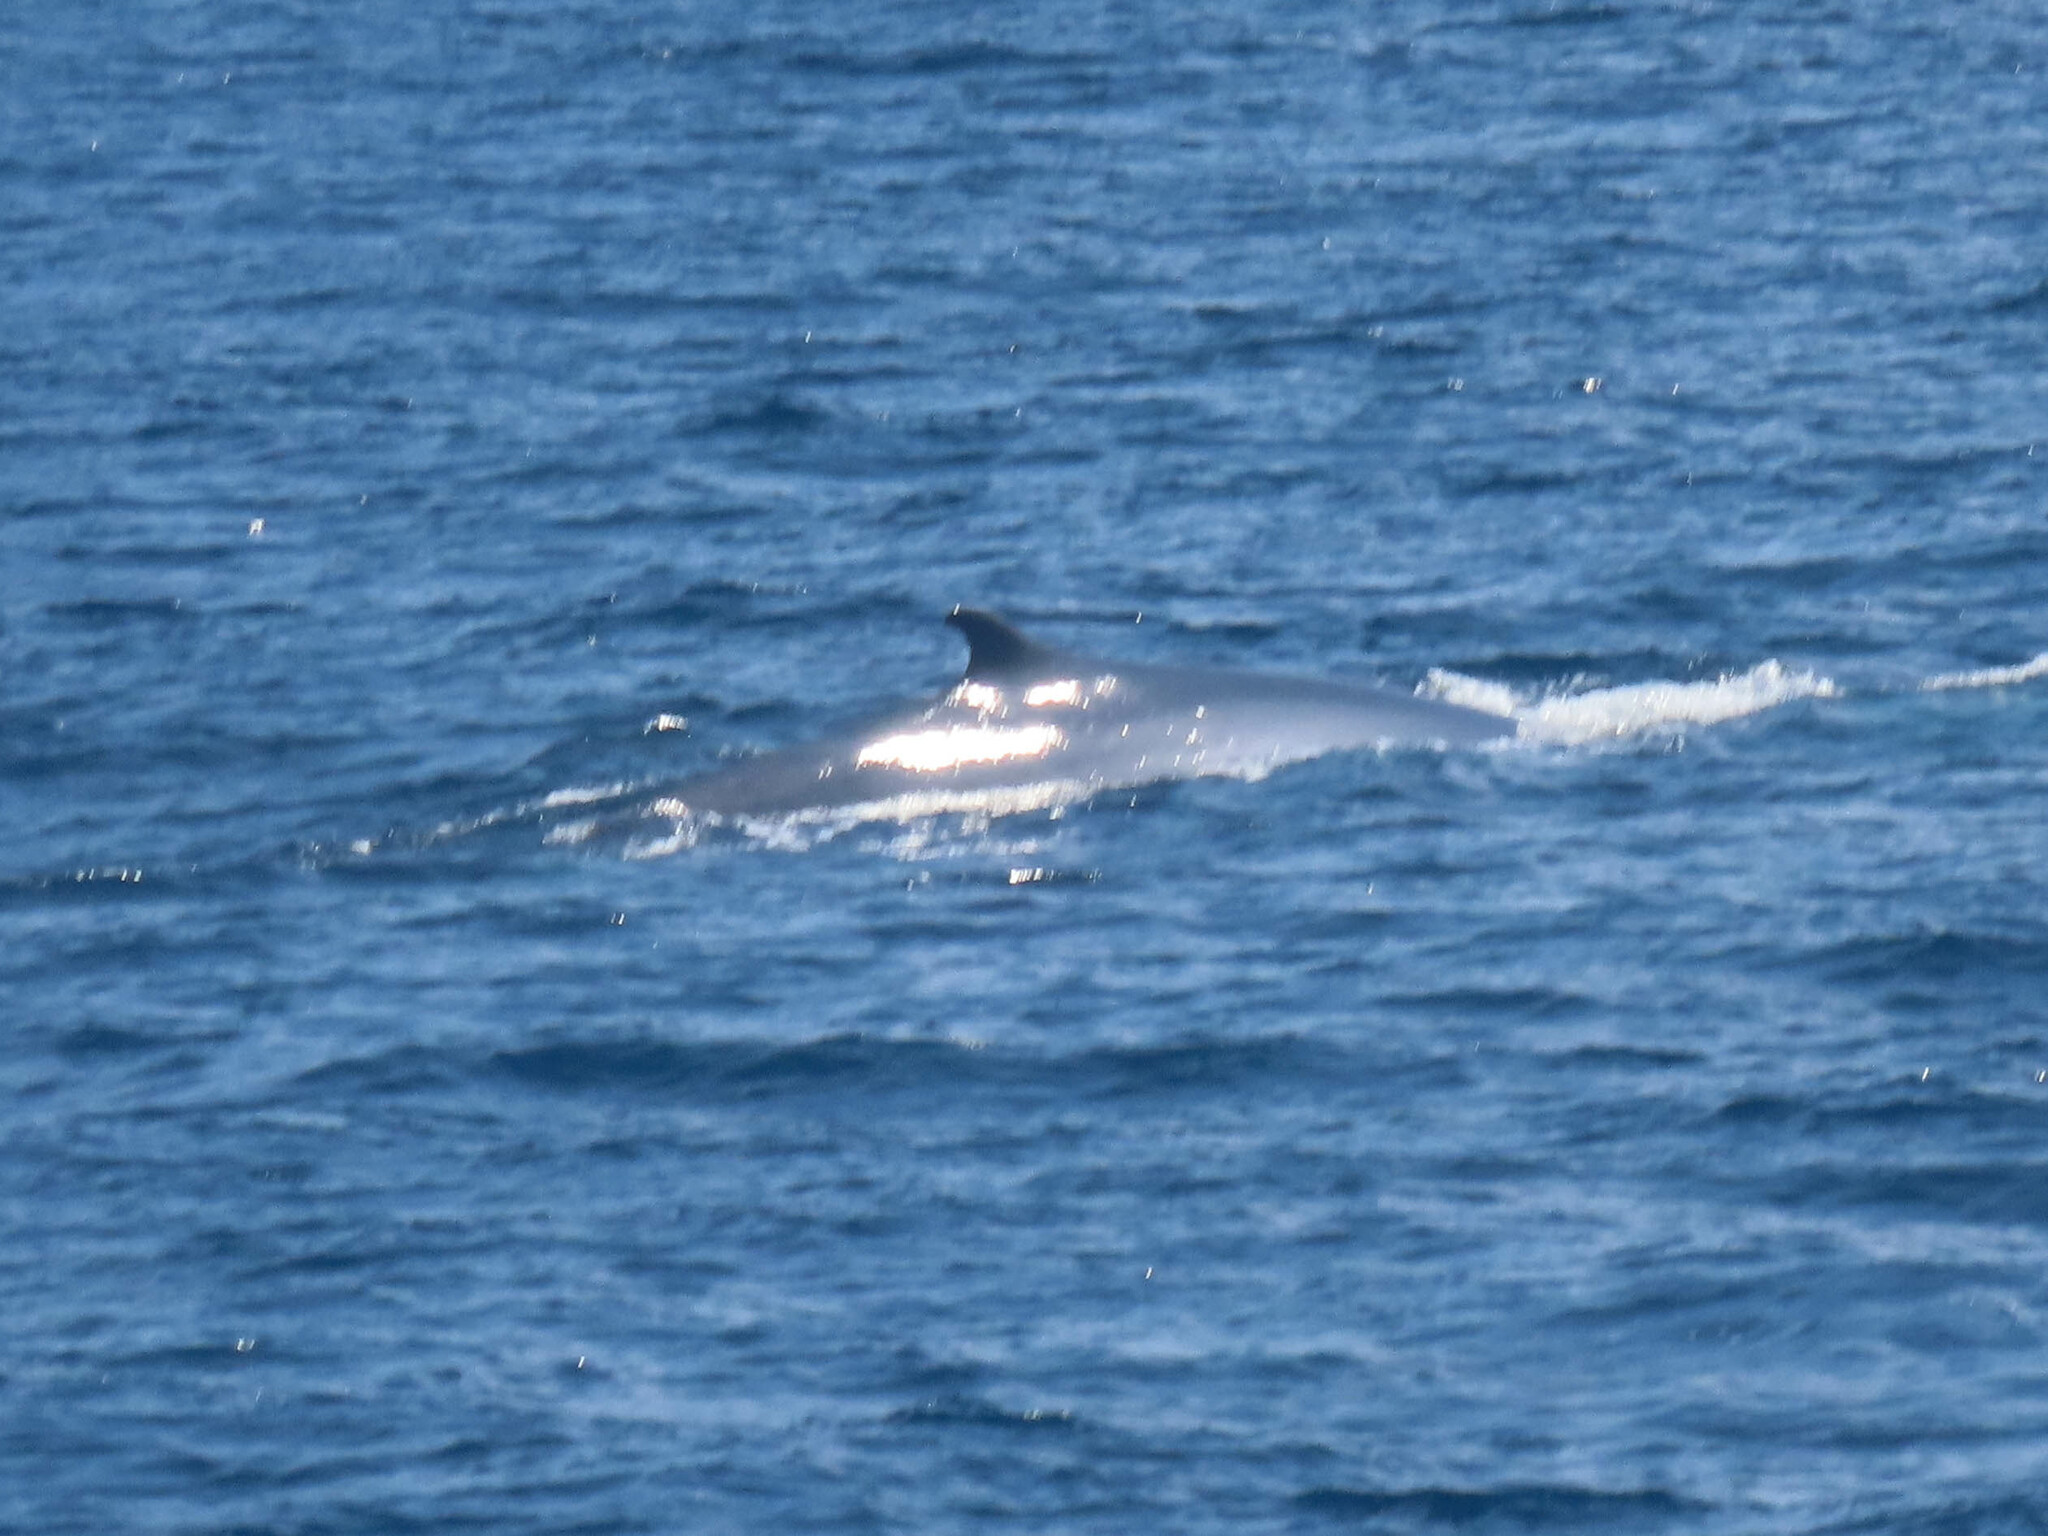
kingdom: Animalia
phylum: Chordata
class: Mammalia
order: Cetacea
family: Balaenopteridae
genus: Balaenoptera
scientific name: Balaenoptera physalus
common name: Fin whale
